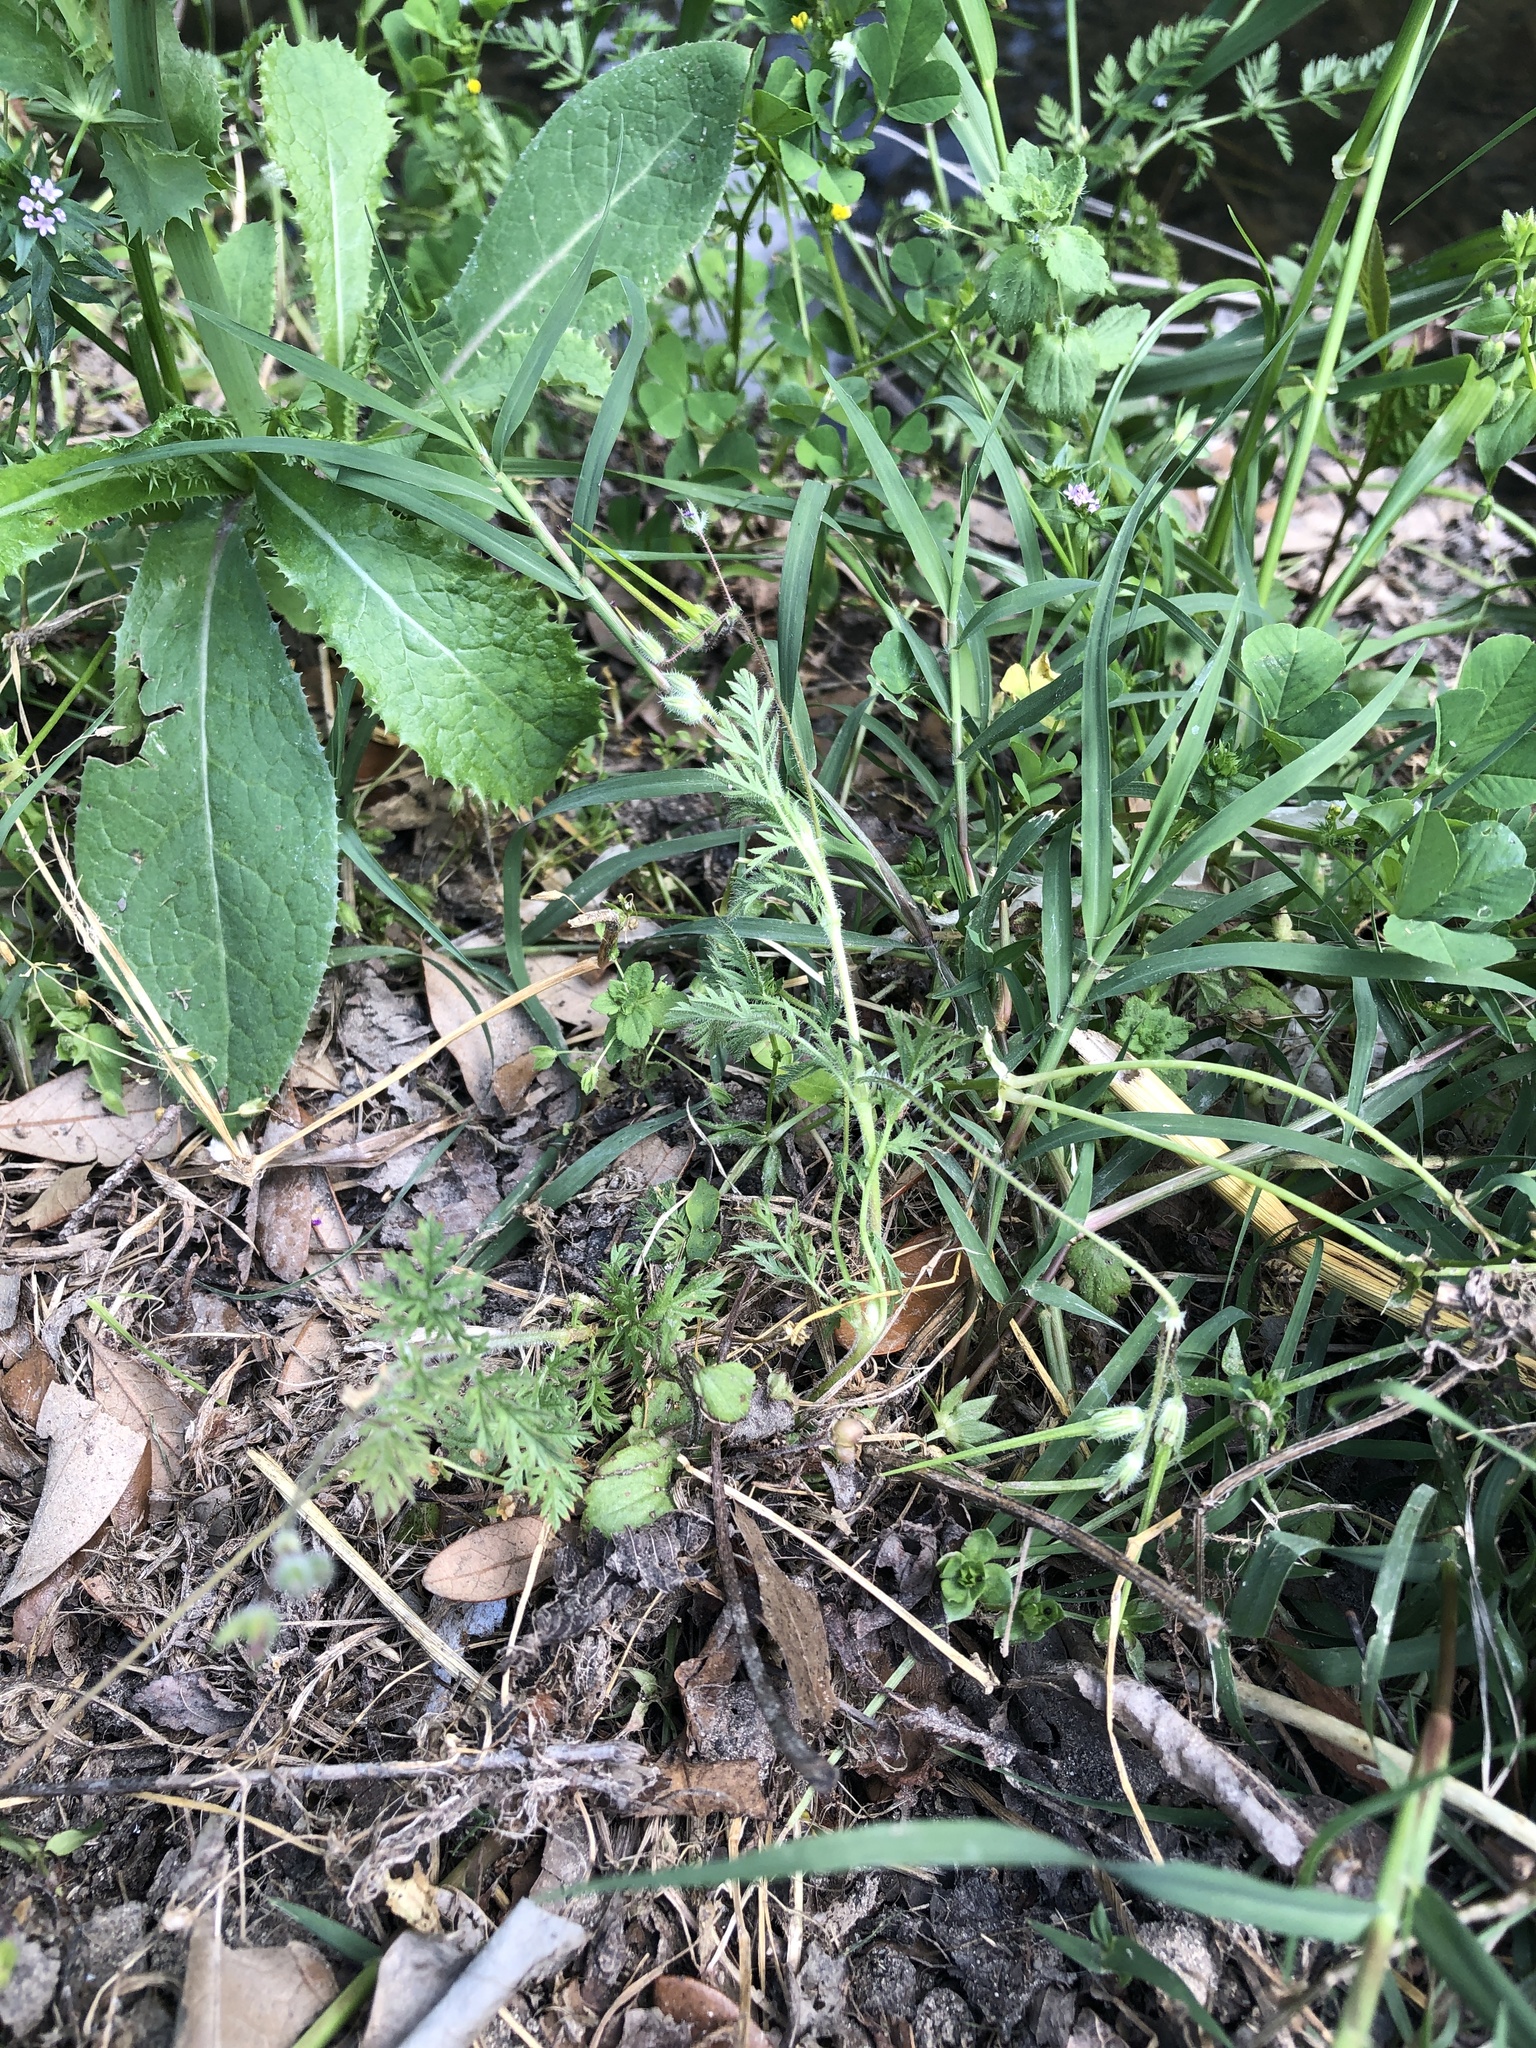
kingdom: Plantae
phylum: Tracheophyta
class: Magnoliopsida
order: Geraniales
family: Geraniaceae
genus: Erodium
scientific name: Erodium cicutarium
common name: Common stork's-bill
